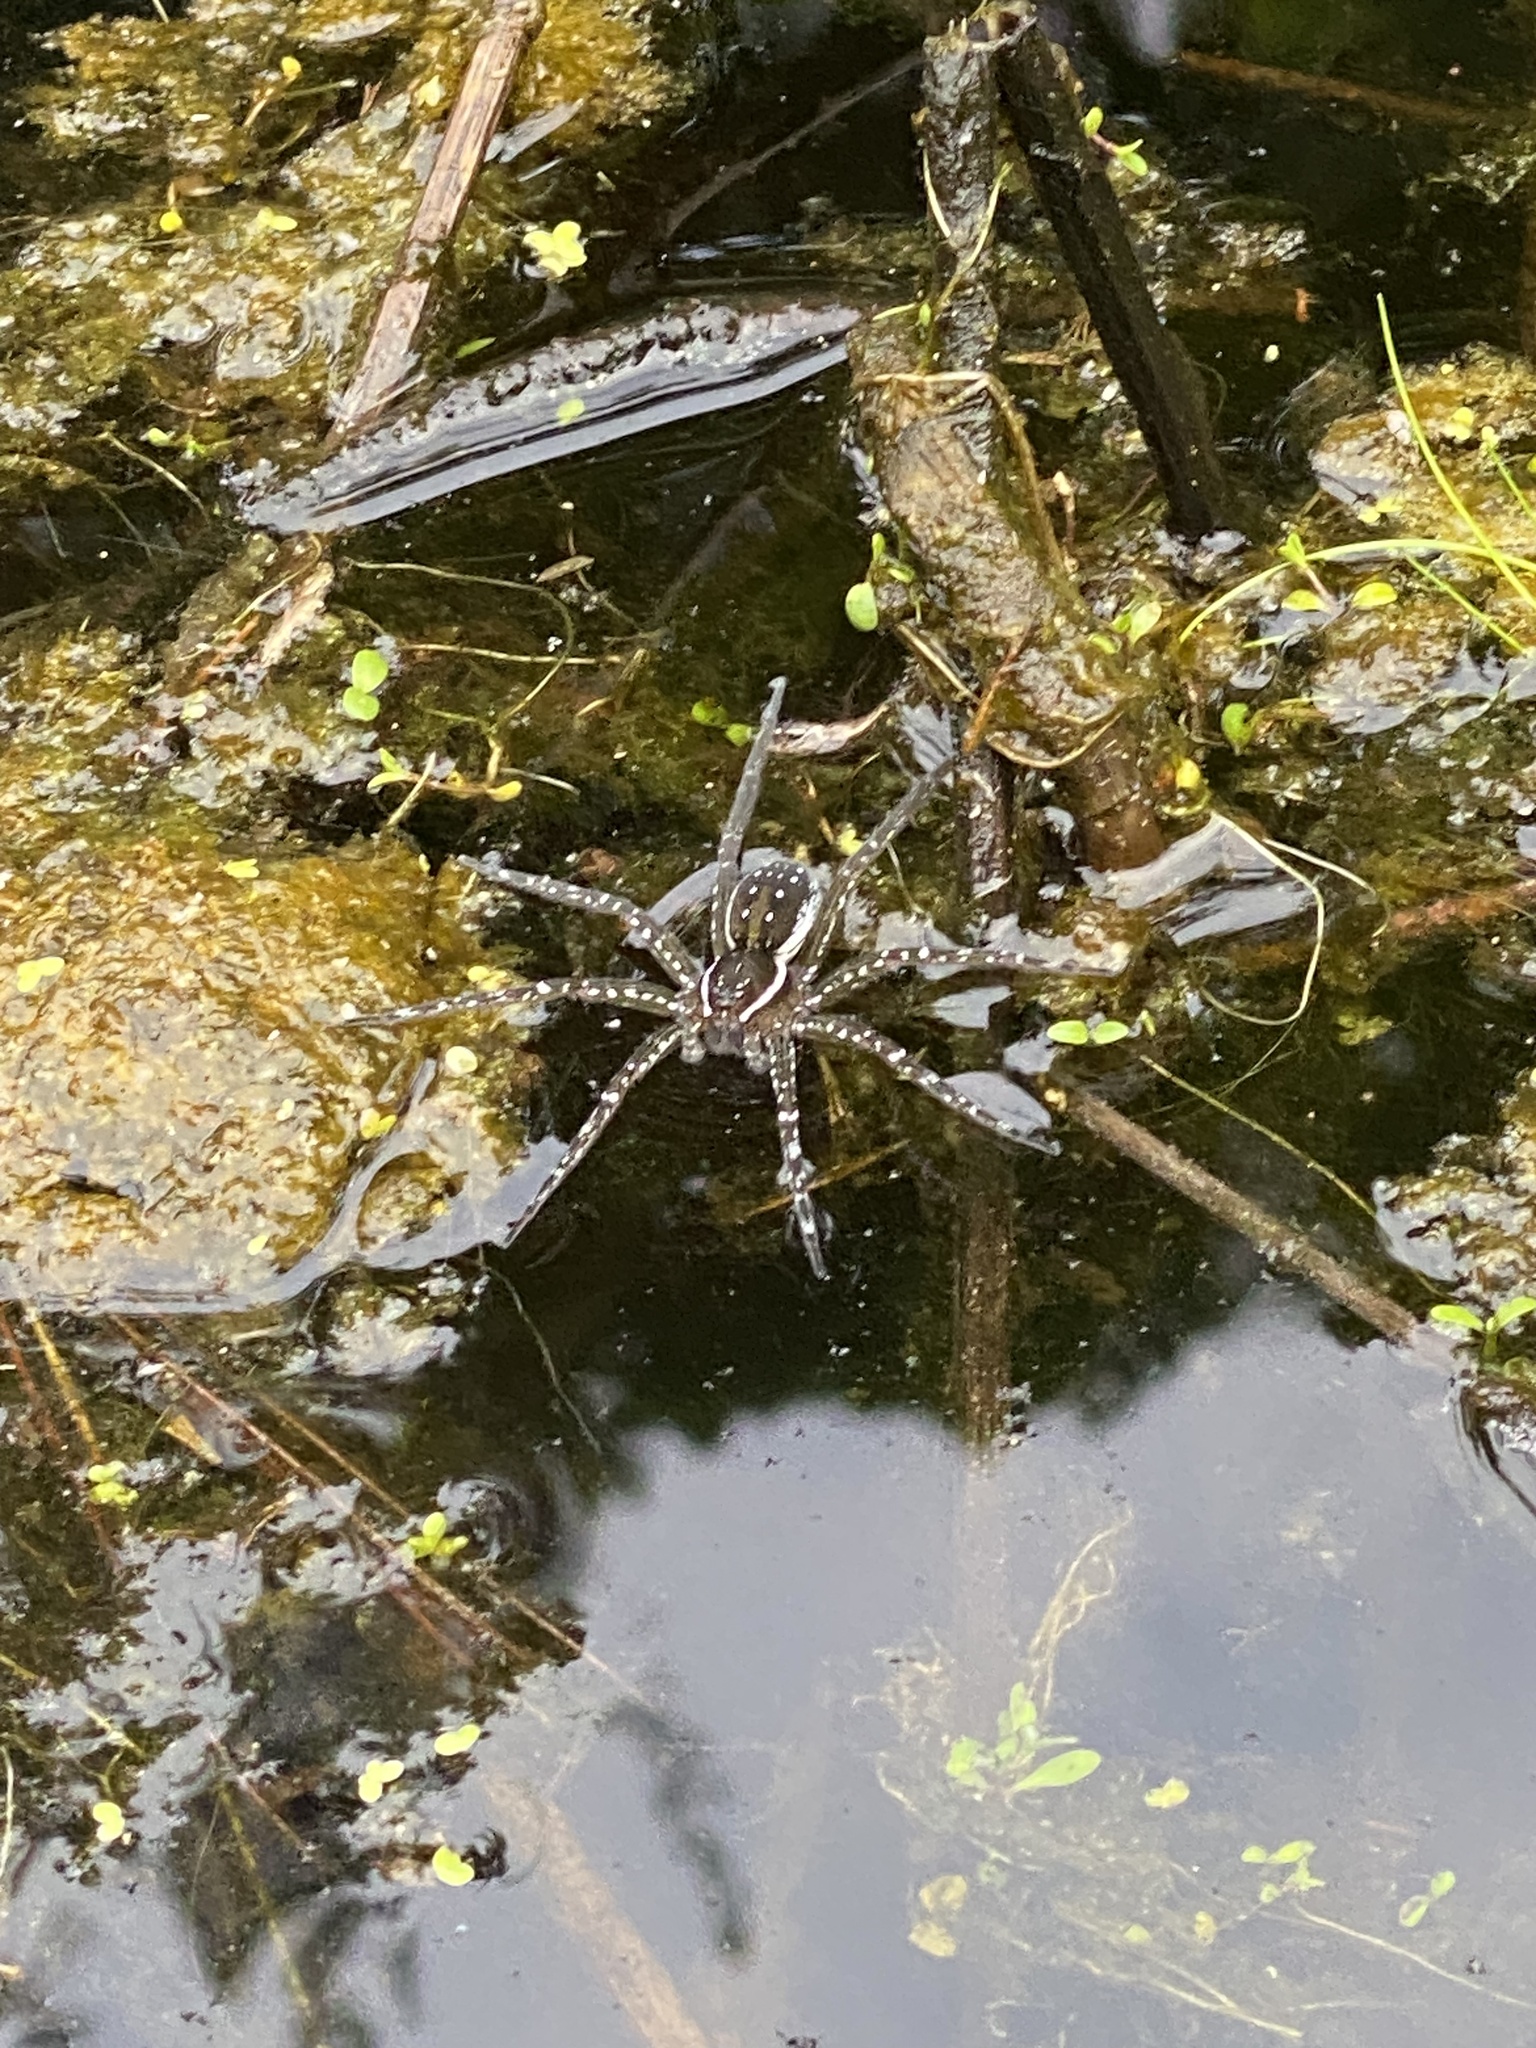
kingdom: Animalia
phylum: Arthropoda
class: Arachnida
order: Araneae
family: Pisauridae
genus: Dolomedes
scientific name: Dolomedes triton
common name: Six-spotted fishing spider
